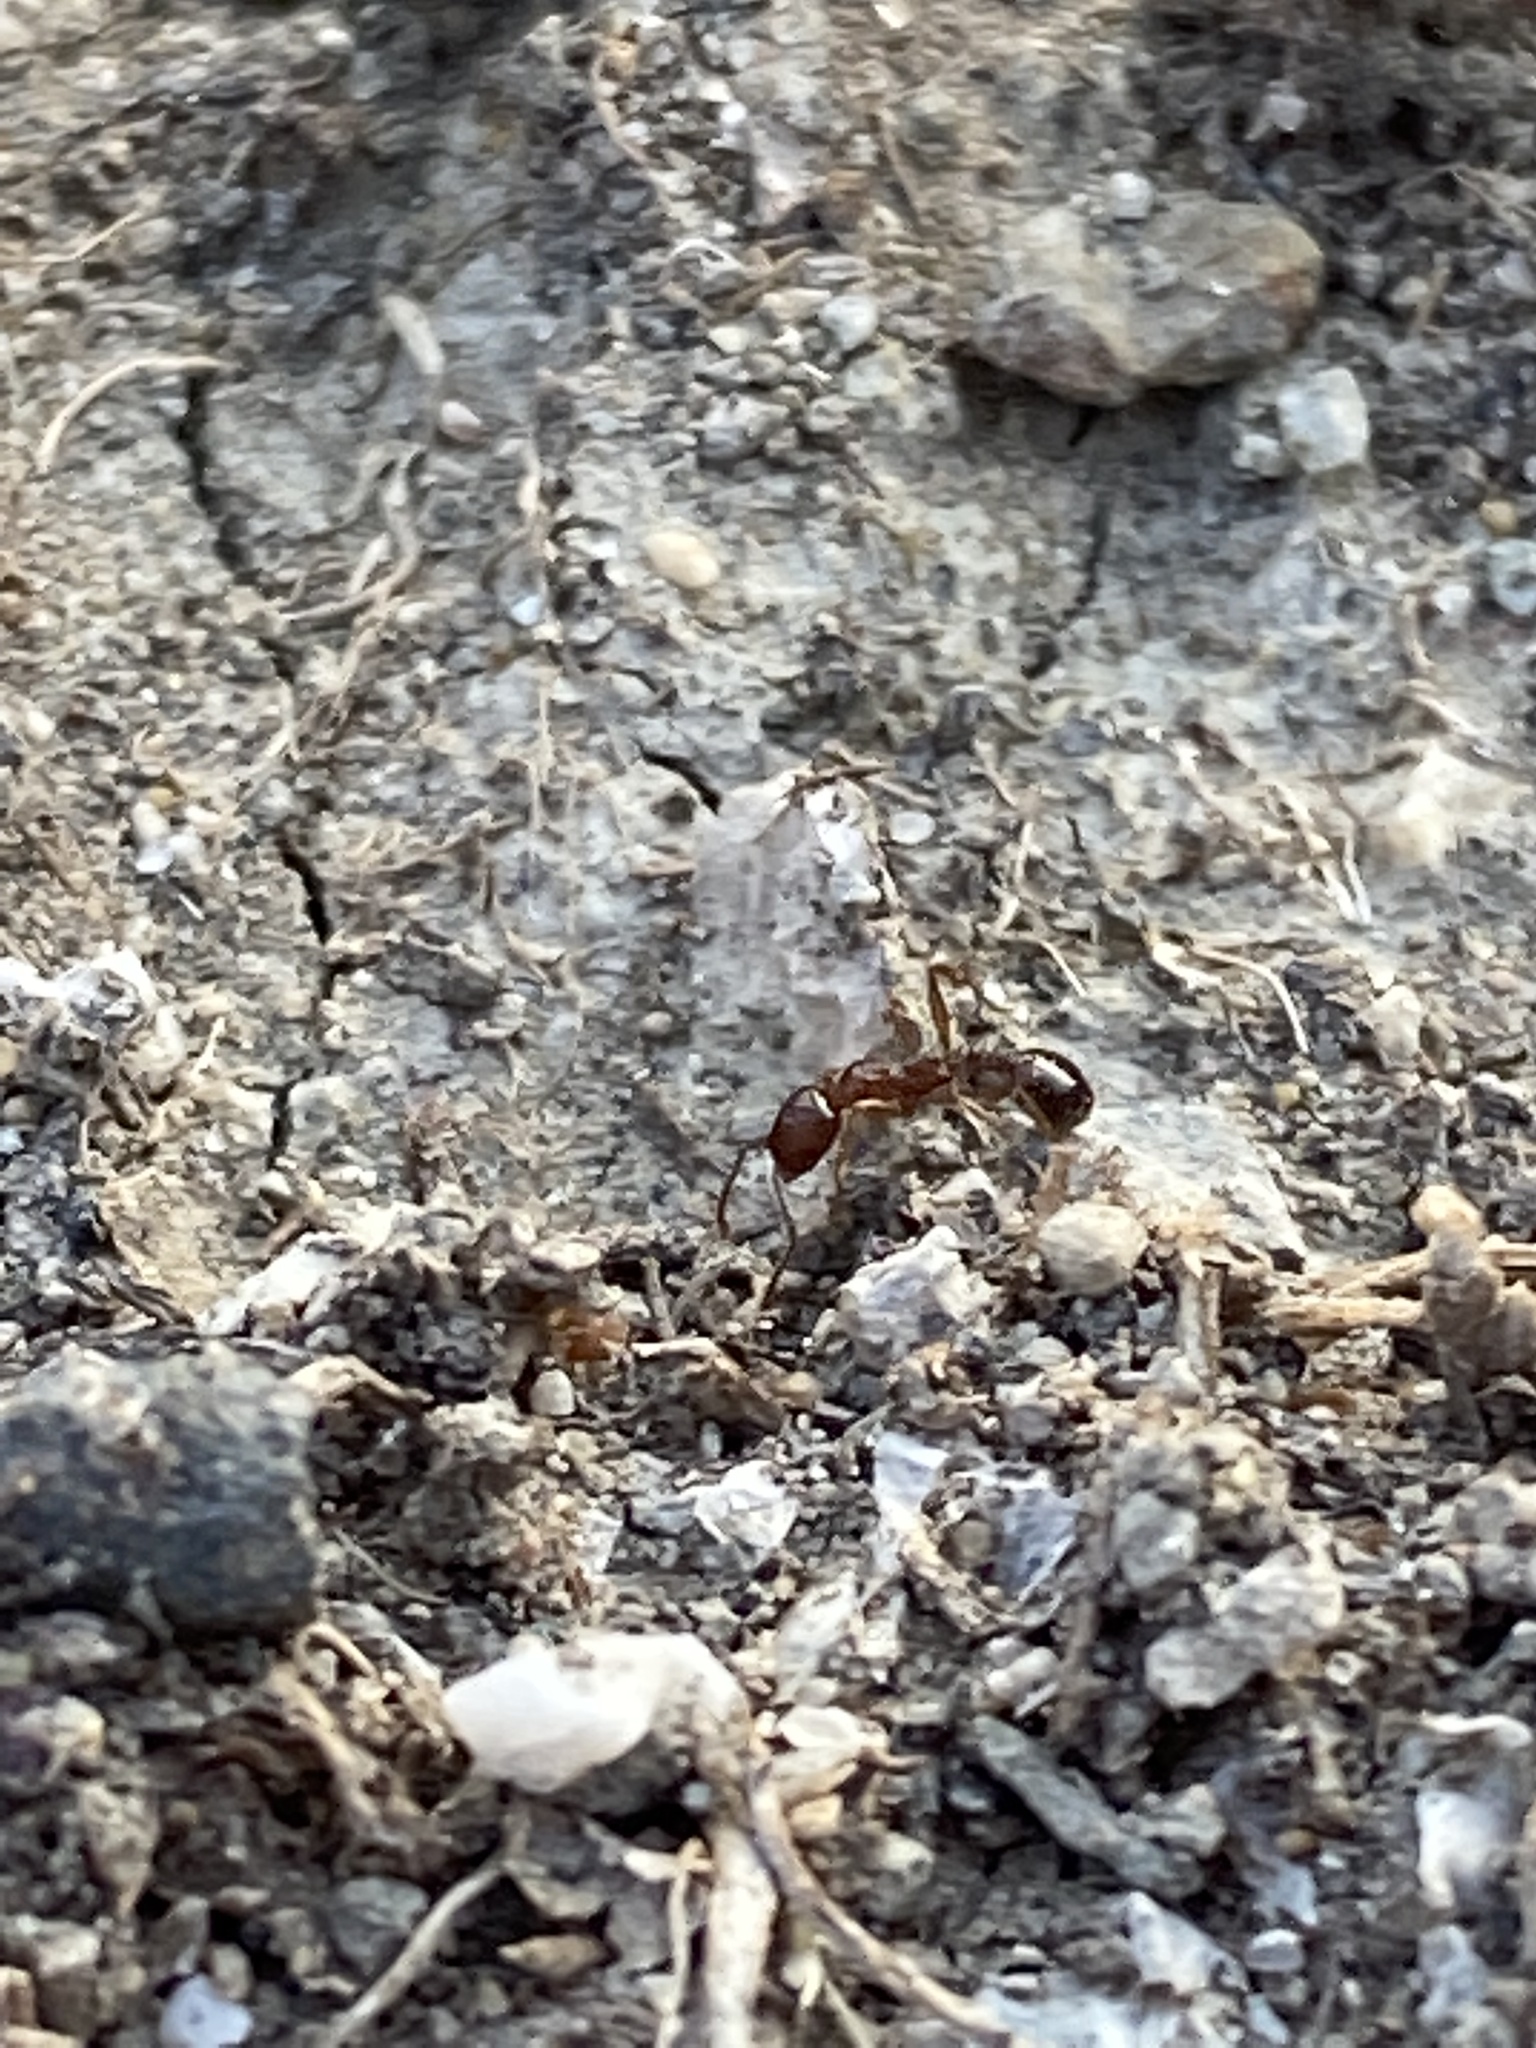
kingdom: Animalia
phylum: Arthropoda
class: Insecta
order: Hymenoptera
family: Formicidae
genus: Aphaenogaster
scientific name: Aphaenogaster occidentalis
